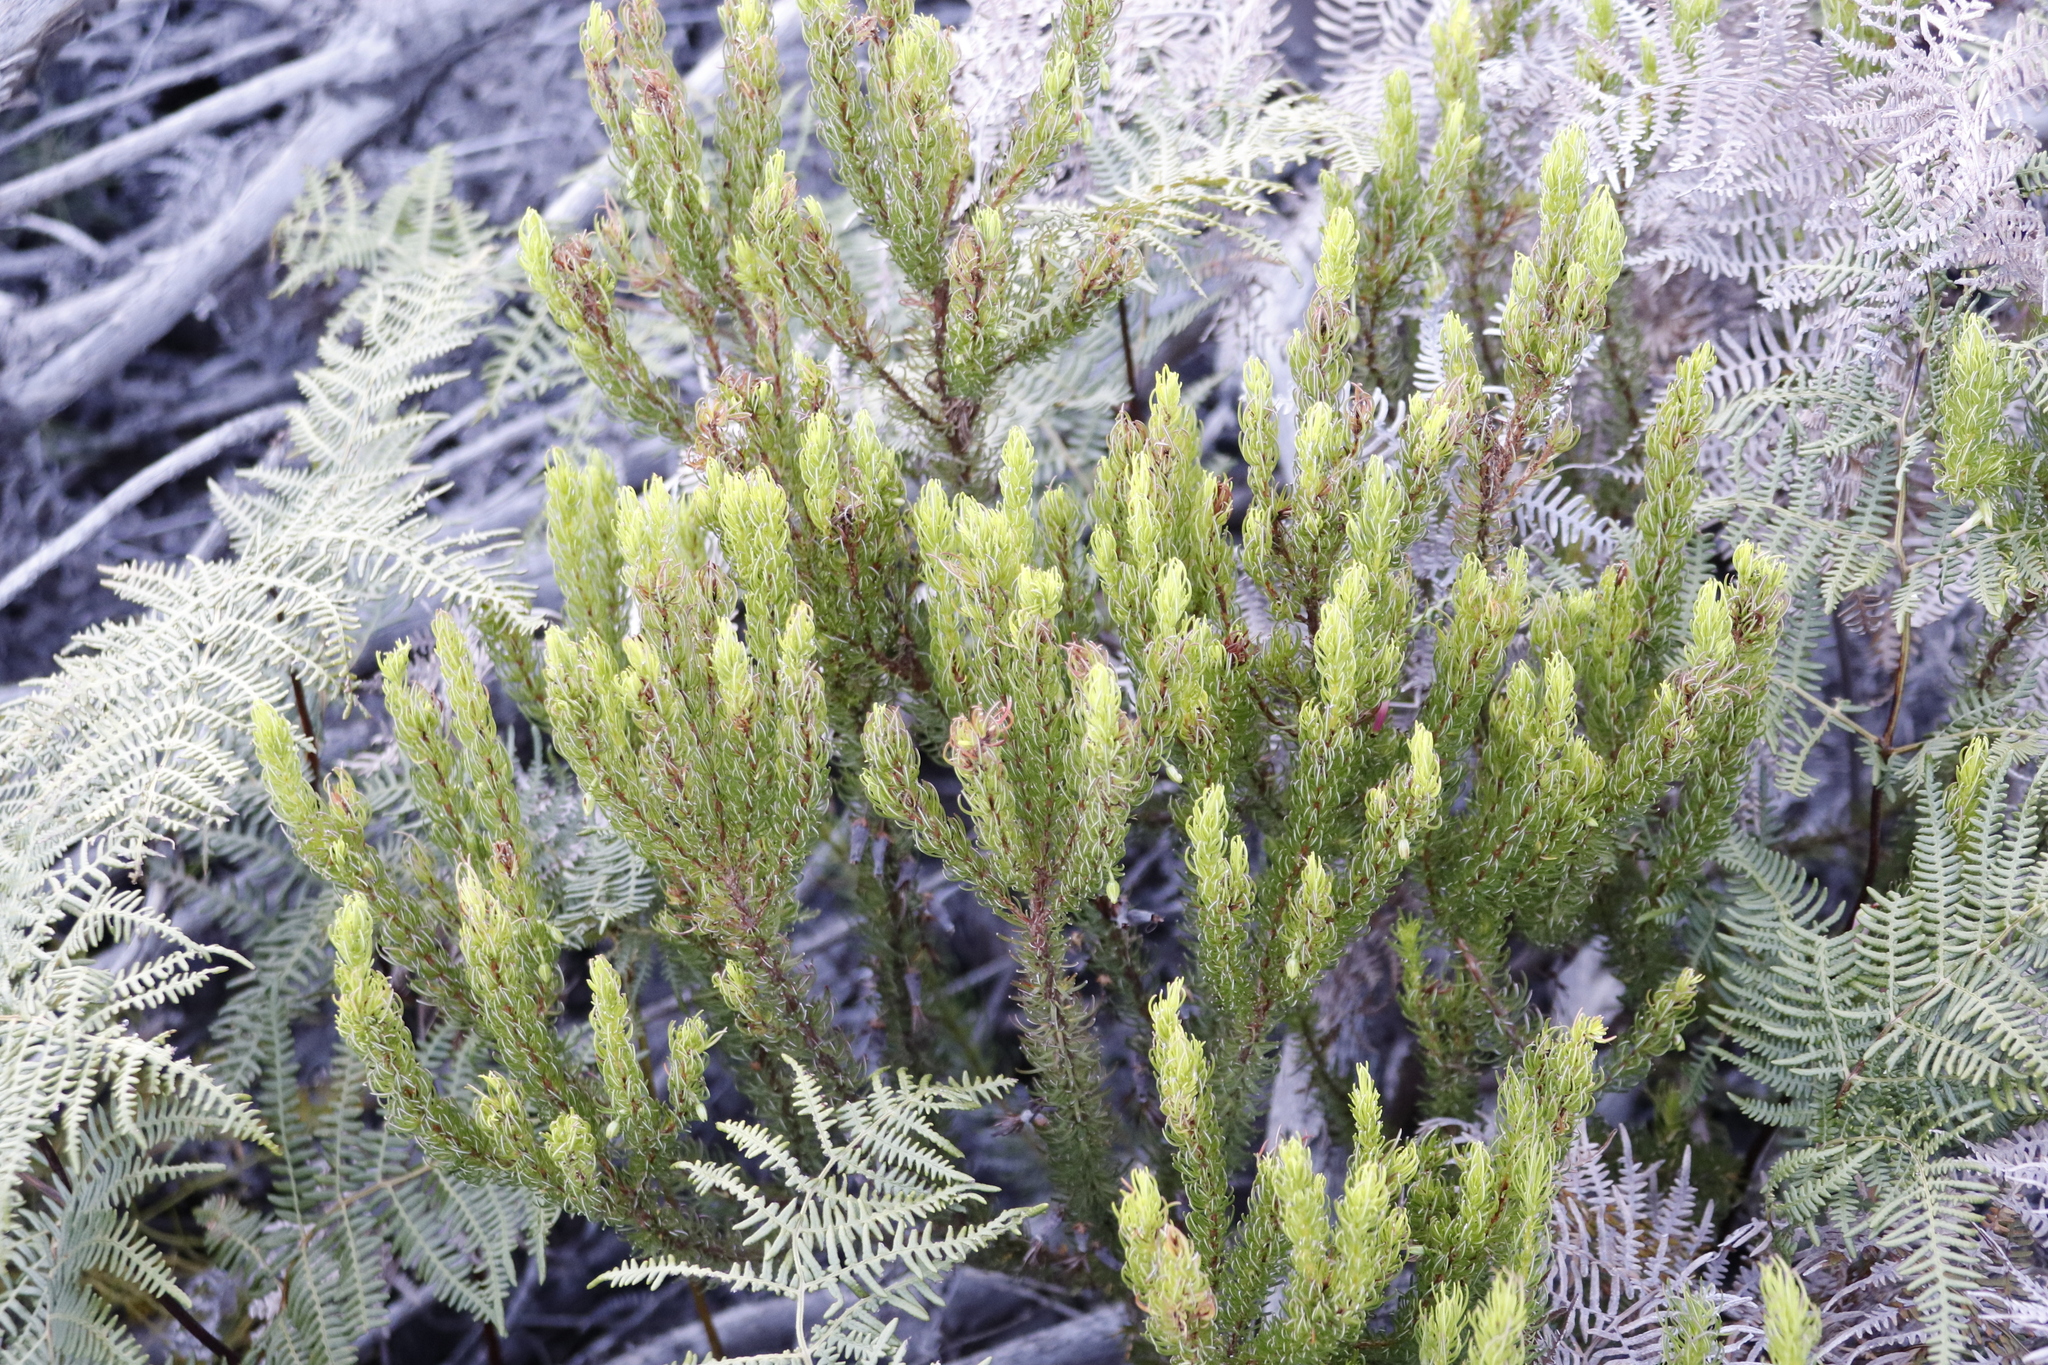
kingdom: Plantae
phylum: Tracheophyta
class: Magnoliopsida
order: Ericales
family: Ericaceae
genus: Erica
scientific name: Erica plukenetii
